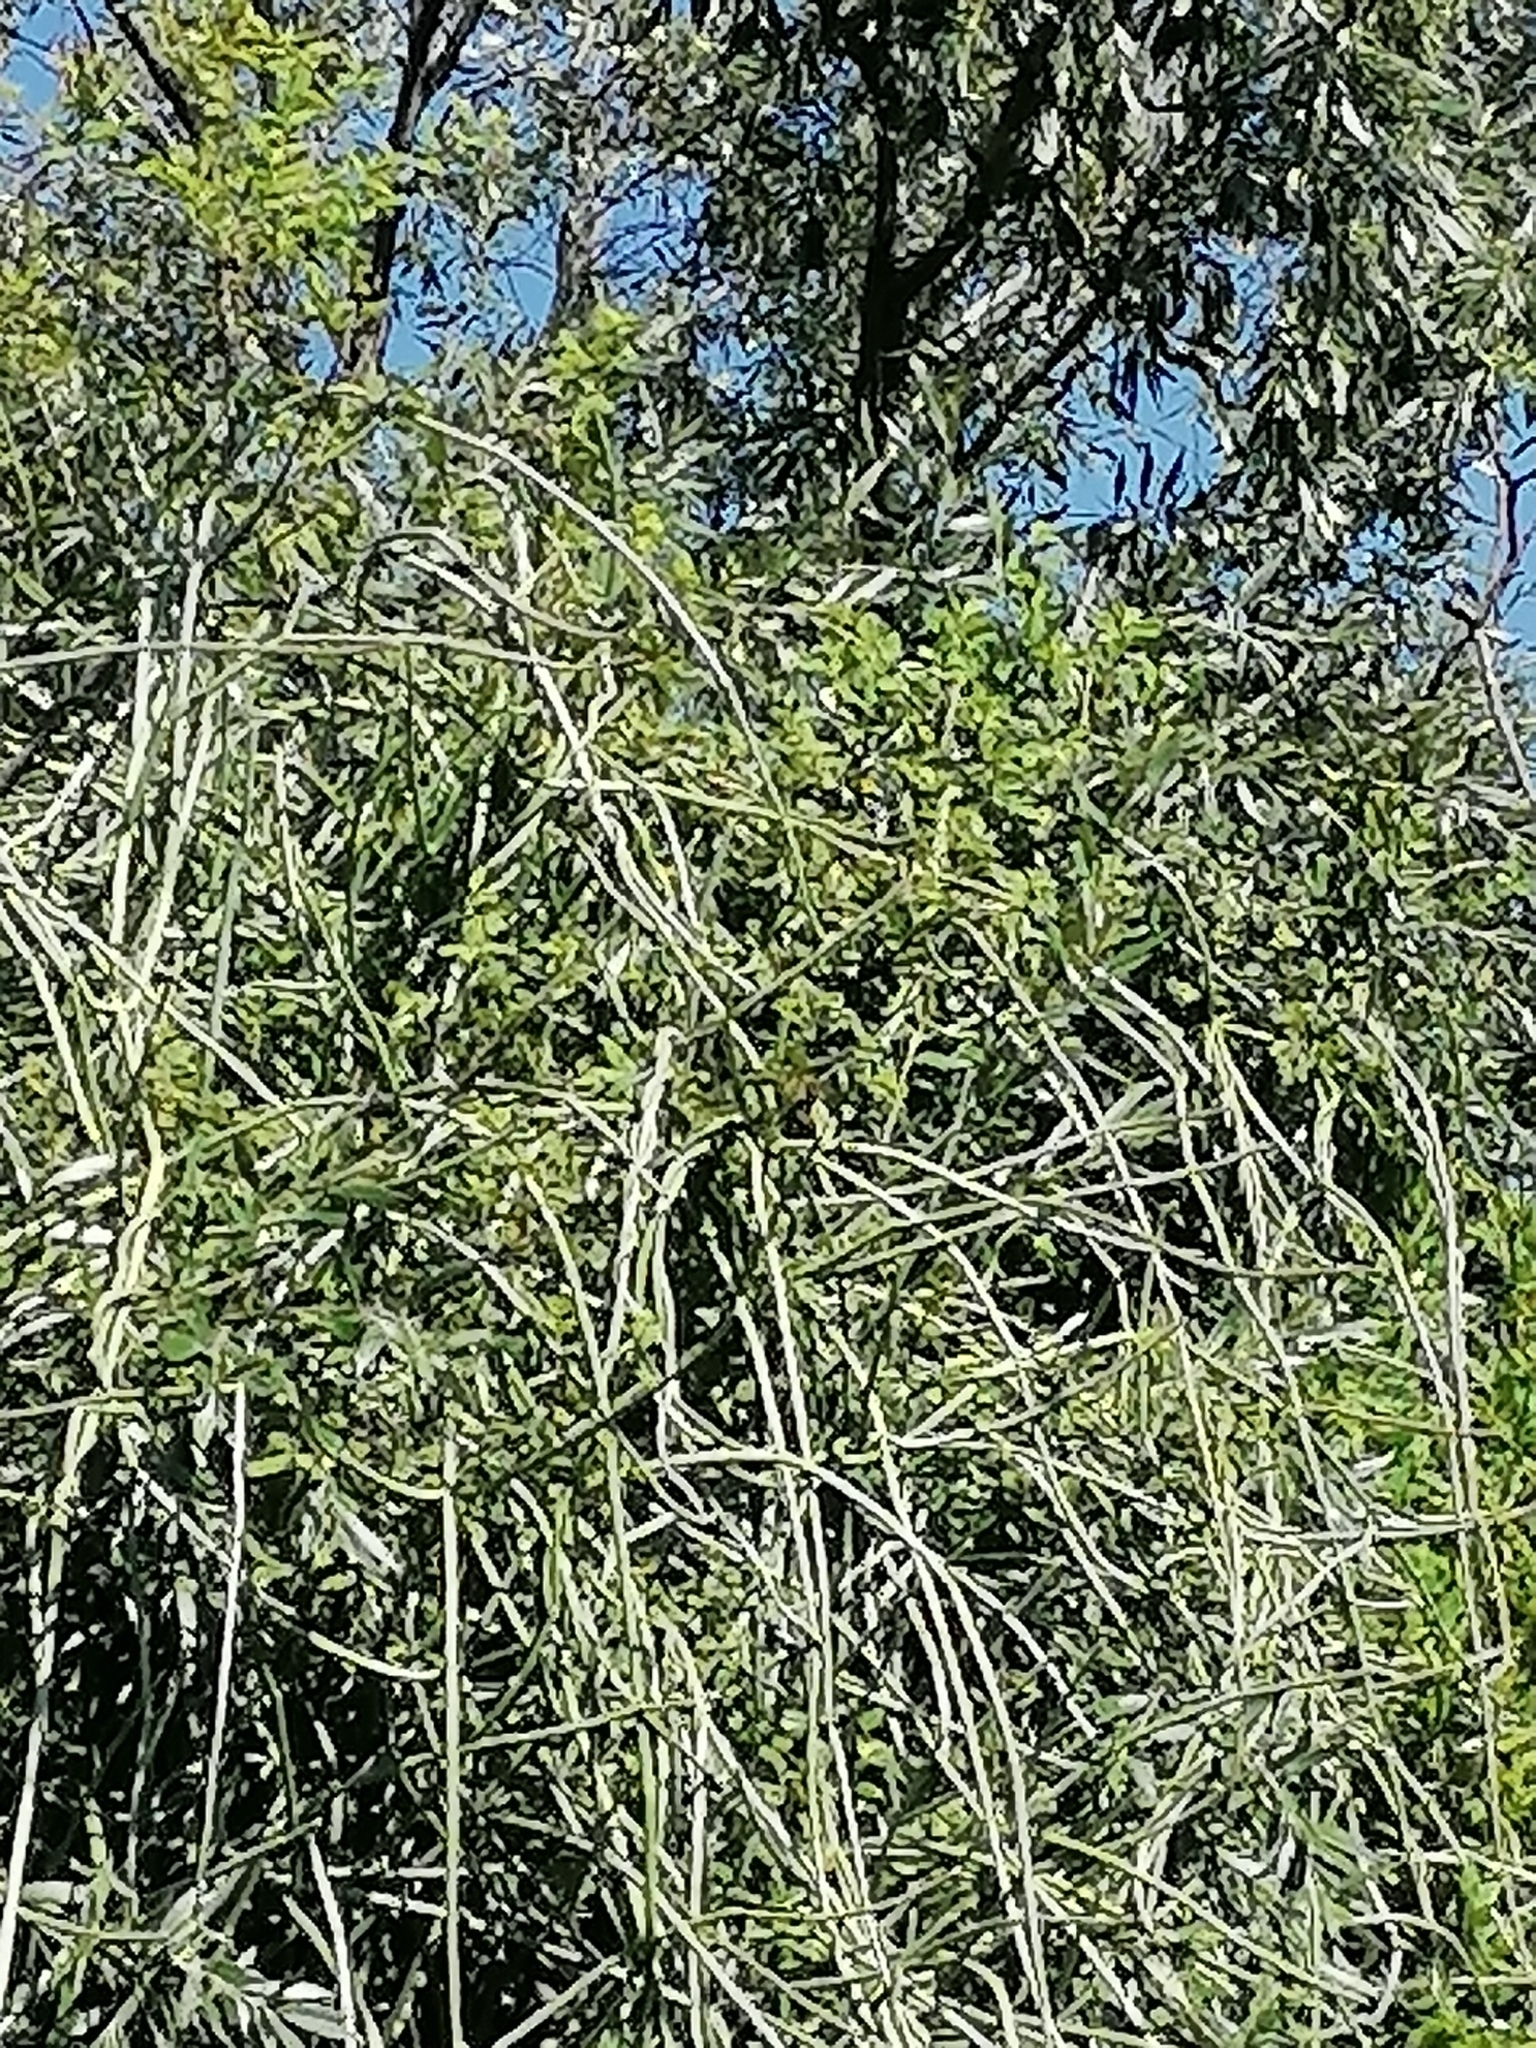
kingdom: Plantae
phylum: Tracheophyta
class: Magnoliopsida
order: Gentianales
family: Apocynaceae
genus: Cynanchum
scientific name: Cynanchum viminale
